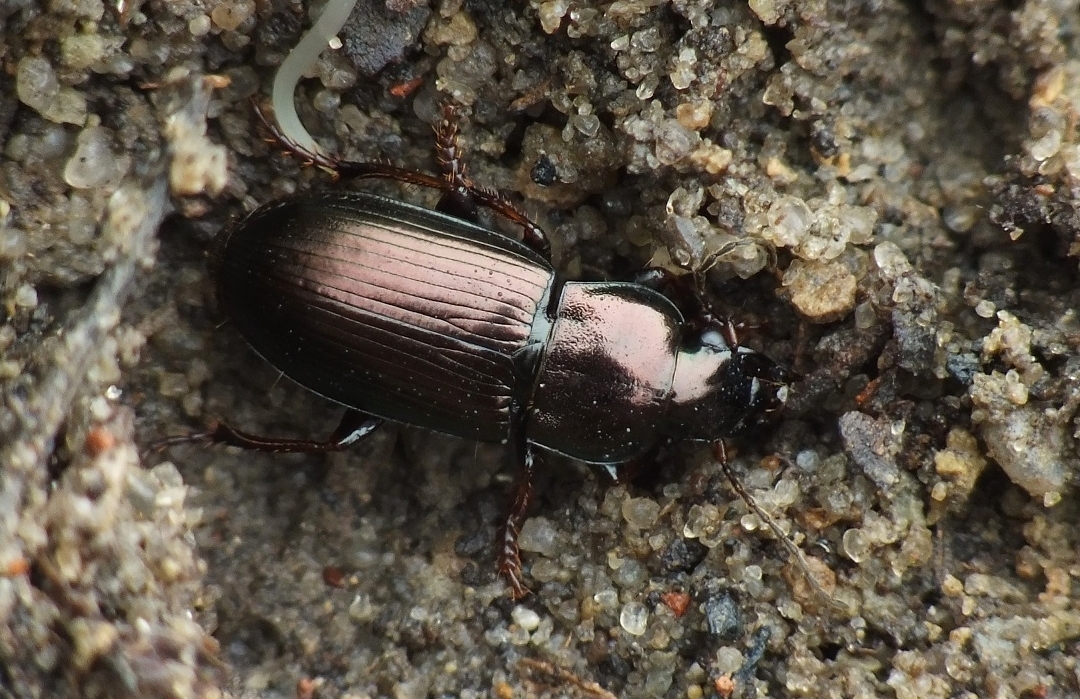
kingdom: Animalia
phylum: Arthropoda
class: Insecta
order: Coleoptera
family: Carabidae
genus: Harpalus
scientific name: Harpalus distinguendus
